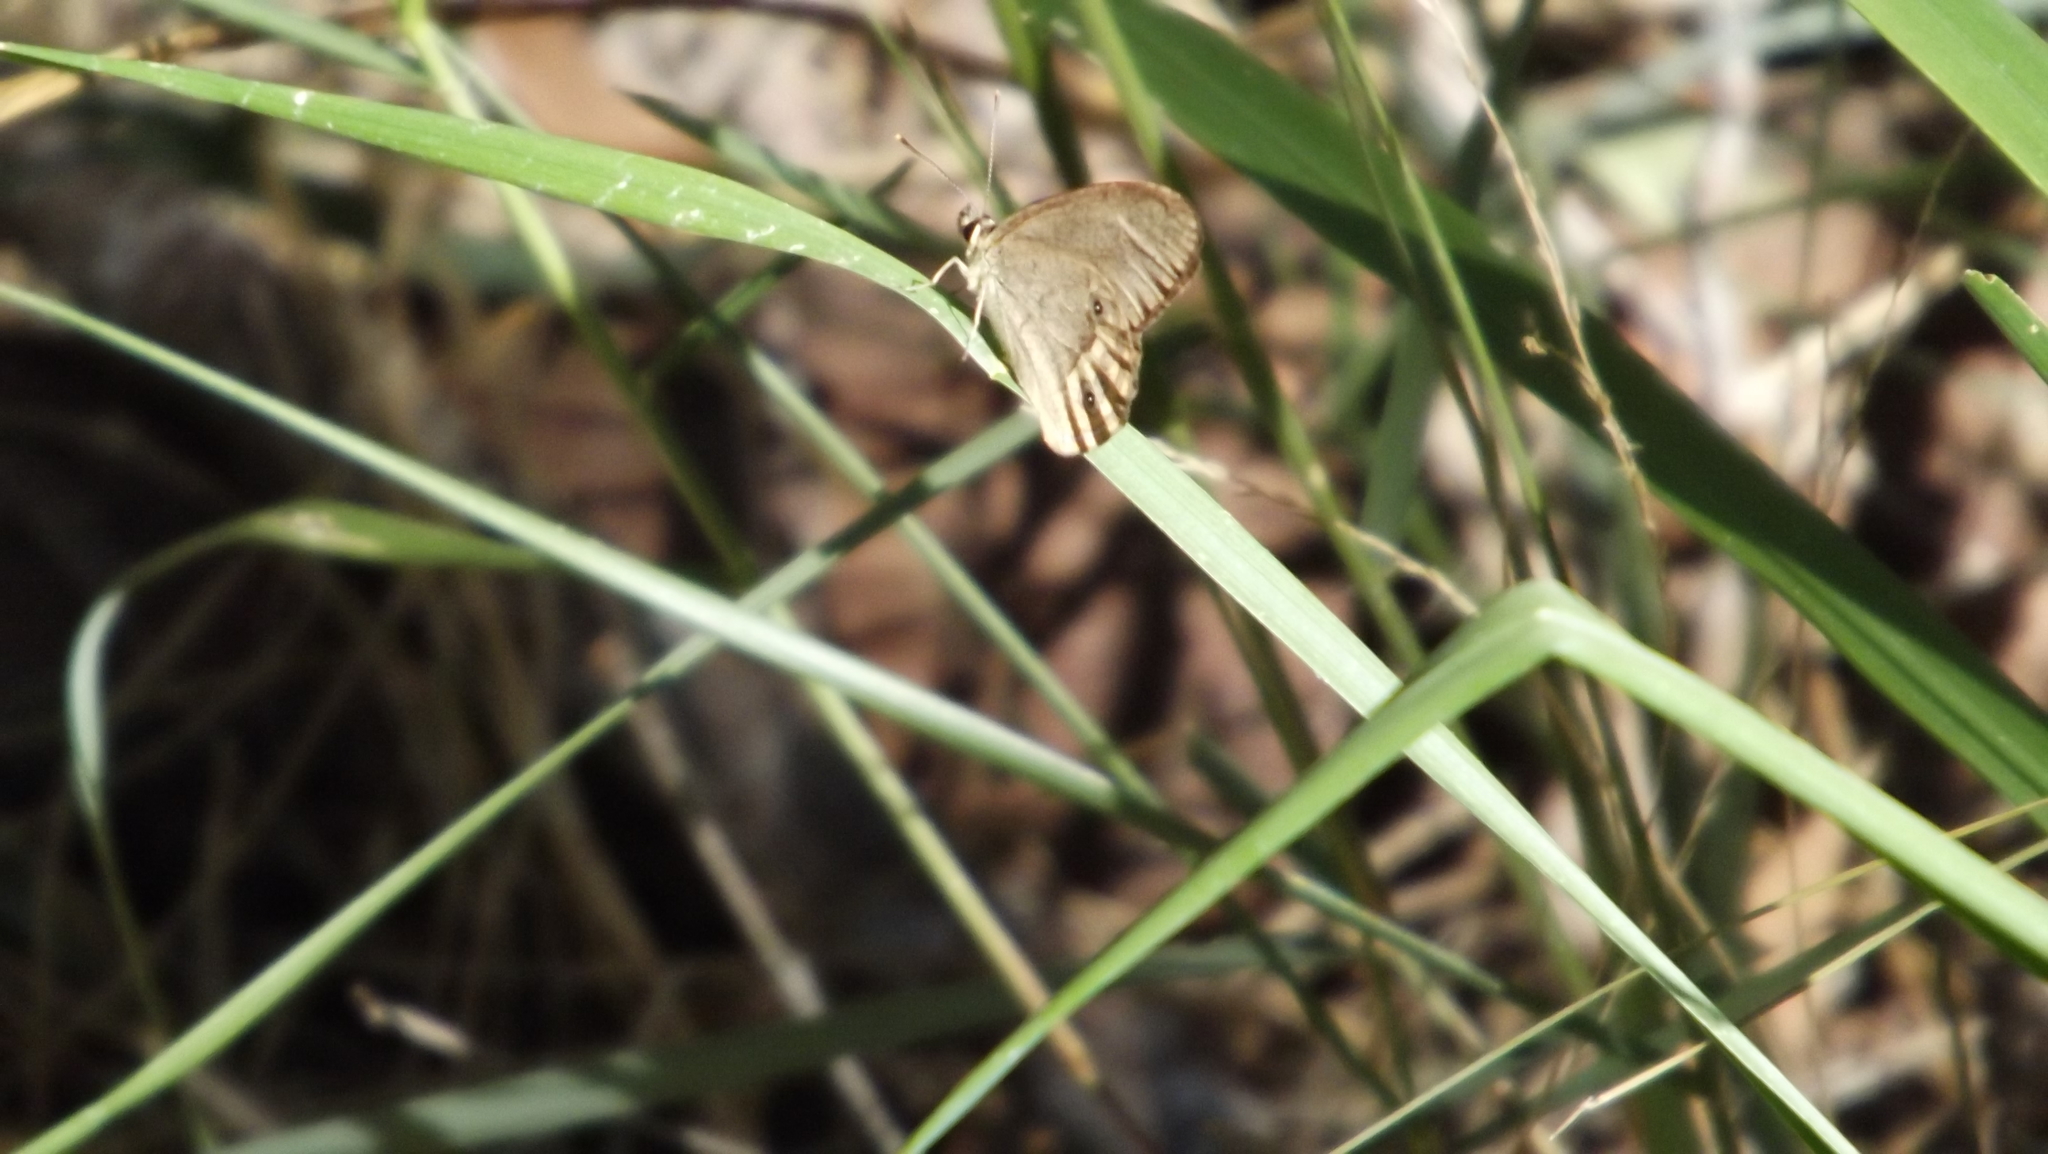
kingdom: Animalia
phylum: Arthropoda
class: Insecta
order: Lepidoptera
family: Nymphalidae
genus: Hypocysta
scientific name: Hypocysta pseudirius
